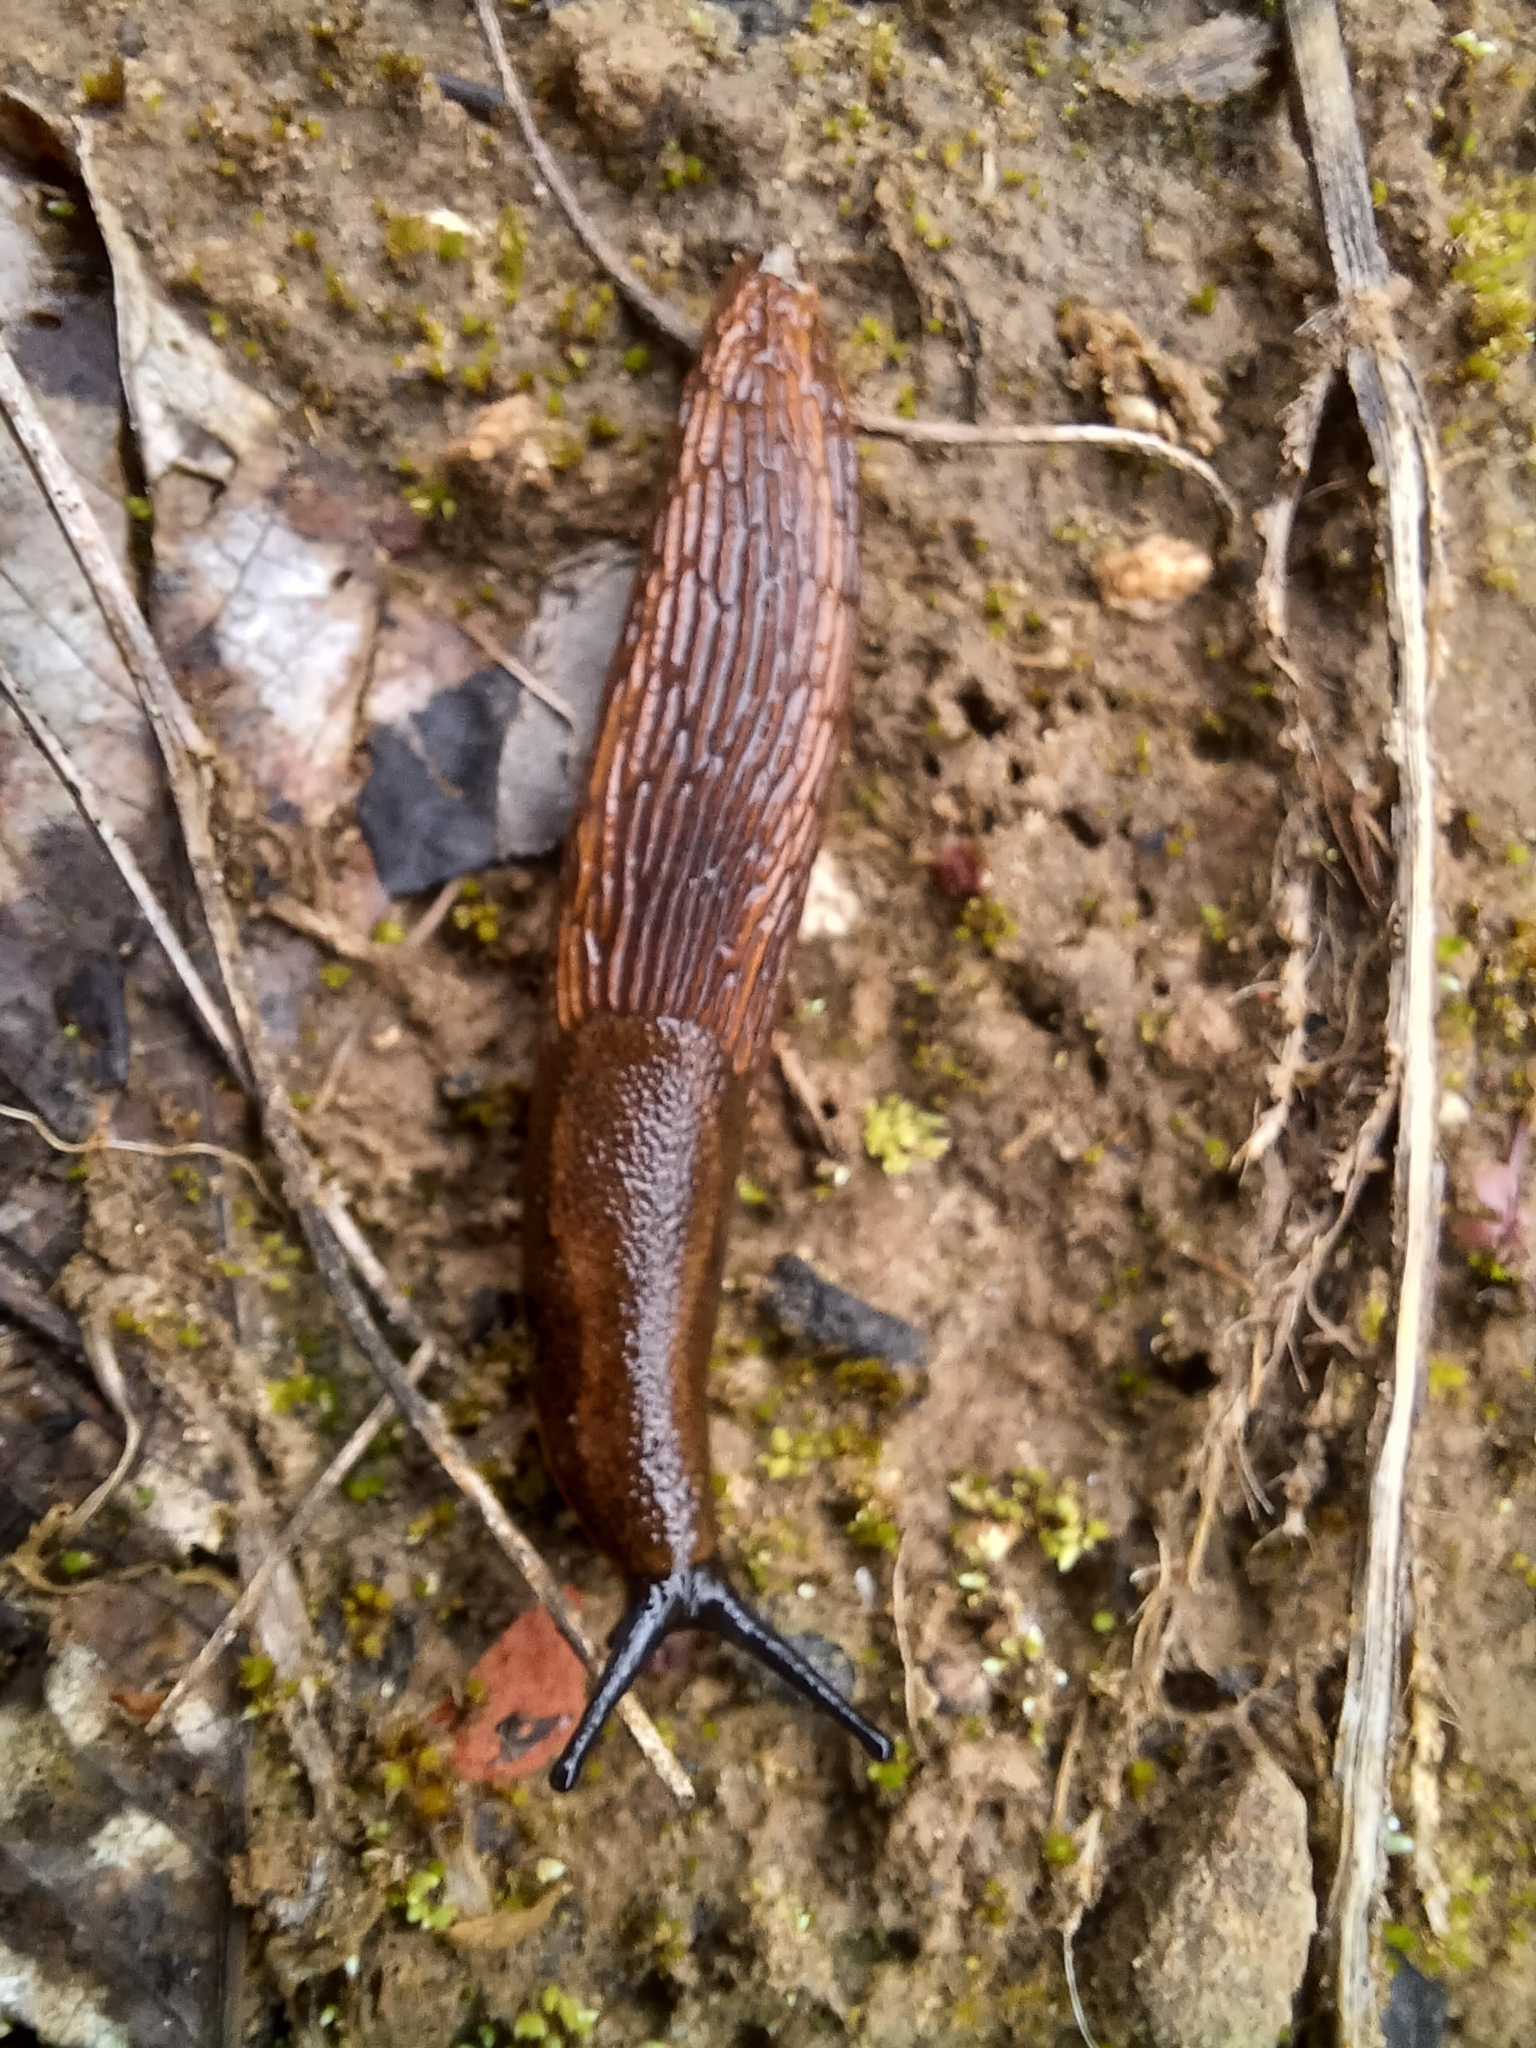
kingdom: Animalia
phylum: Mollusca
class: Gastropoda
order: Stylommatophora
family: Arionidae
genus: Arion
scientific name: Arion rufus
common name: Chocolate arion
